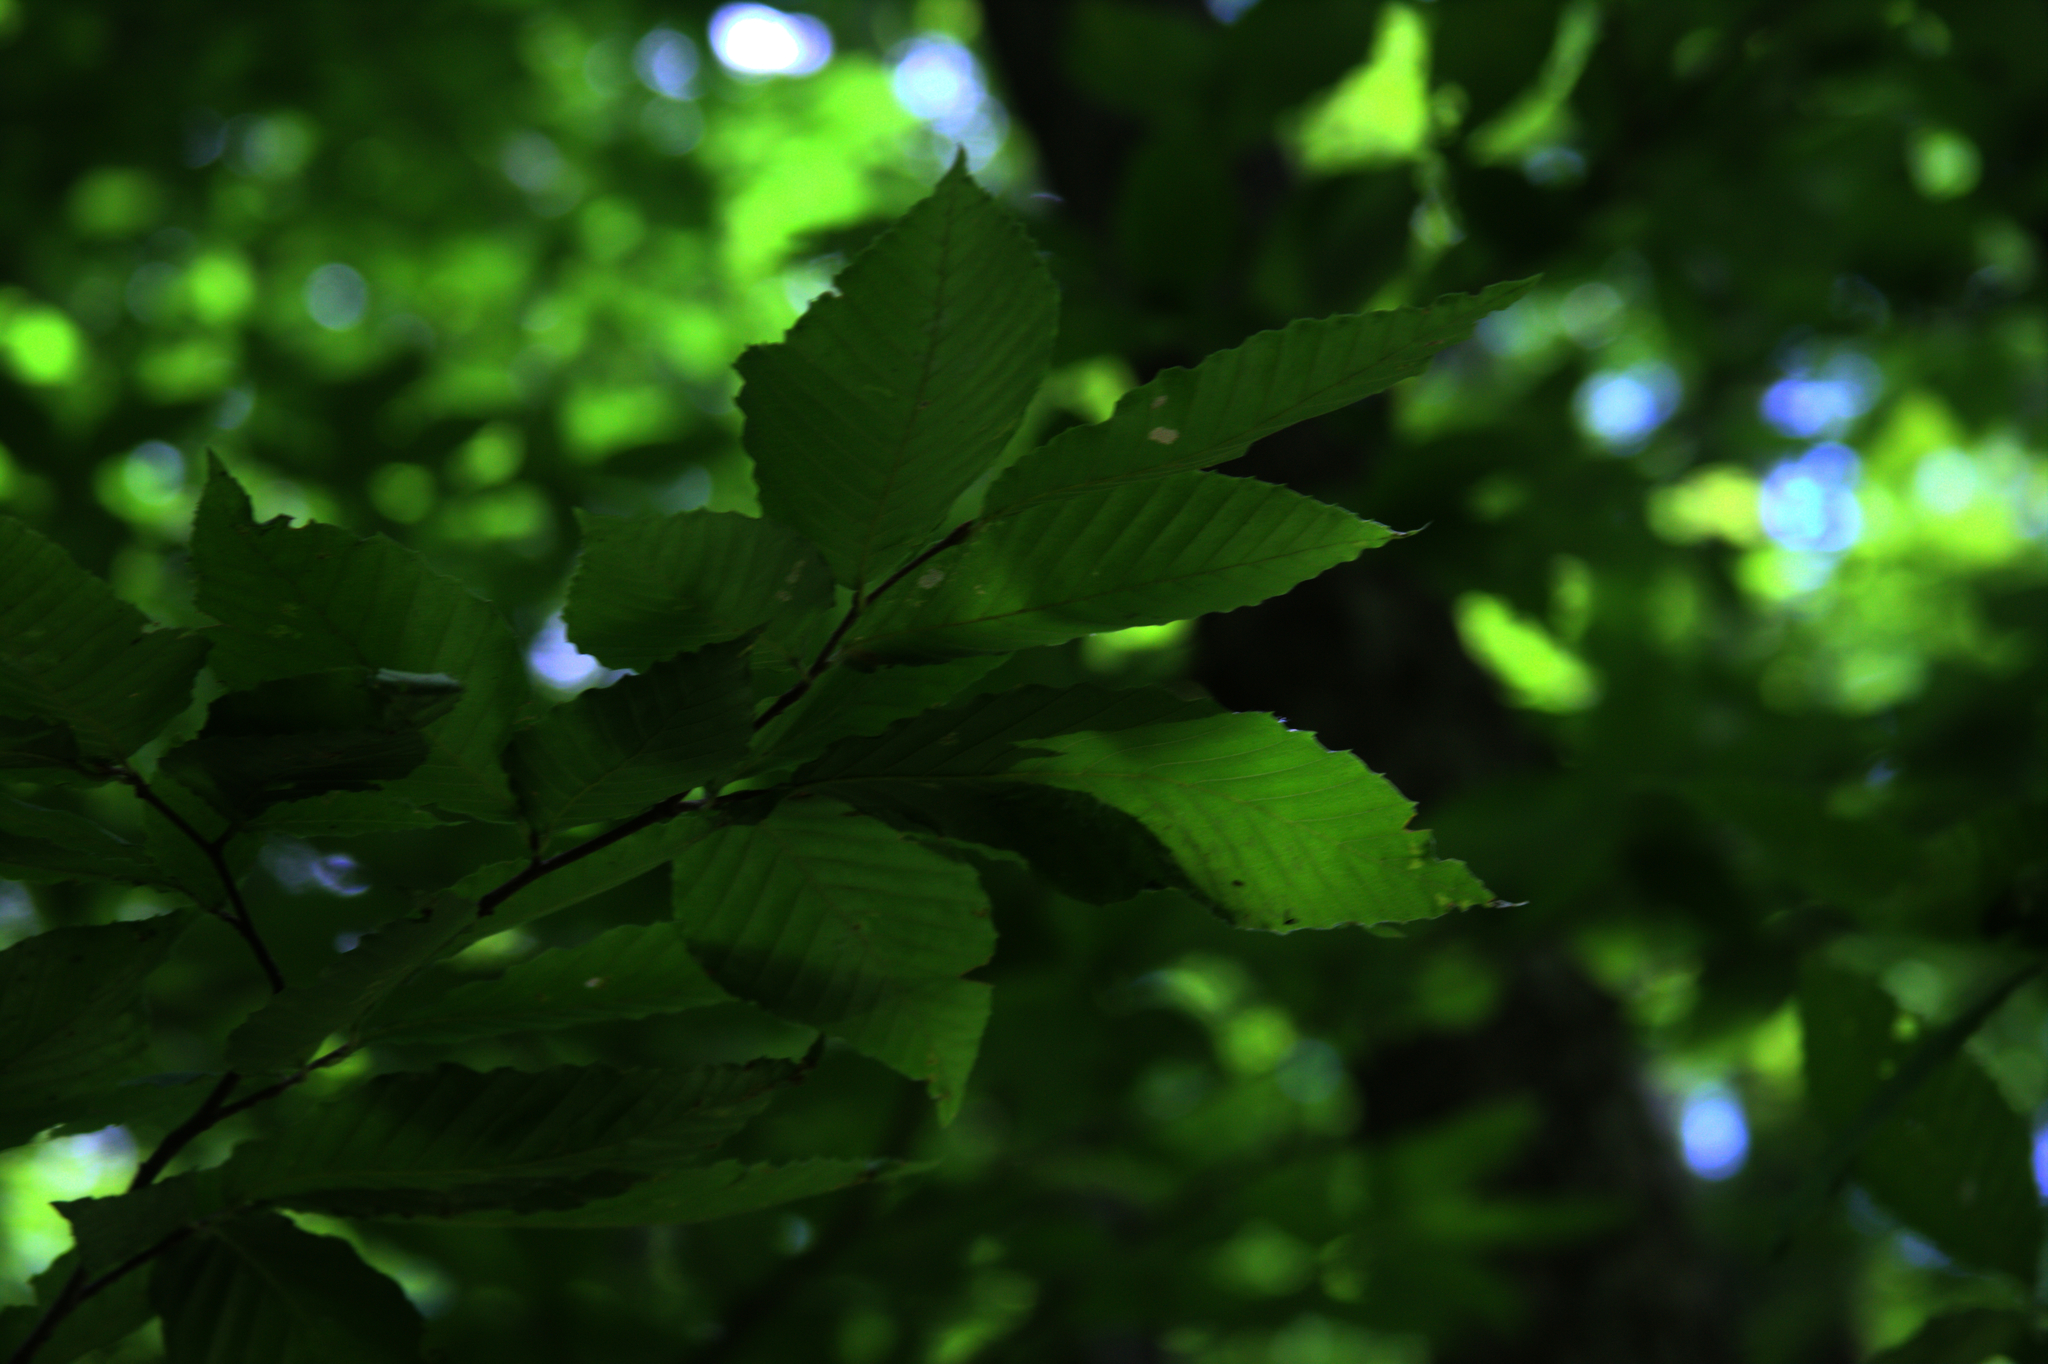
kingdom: Plantae
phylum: Tracheophyta
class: Magnoliopsida
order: Fagales
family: Fagaceae
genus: Fagus
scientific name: Fagus grandifolia
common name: American beech
